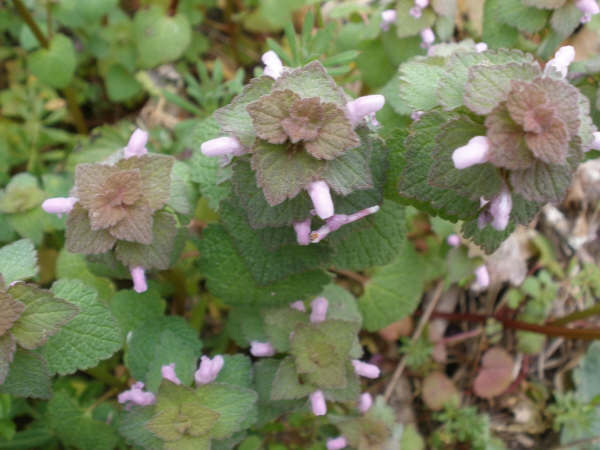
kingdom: Plantae
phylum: Tracheophyta
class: Magnoliopsida
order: Lamiales
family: Lamiaceae
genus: Lamium
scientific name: Lamium purpureum
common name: Red dead-nettle
